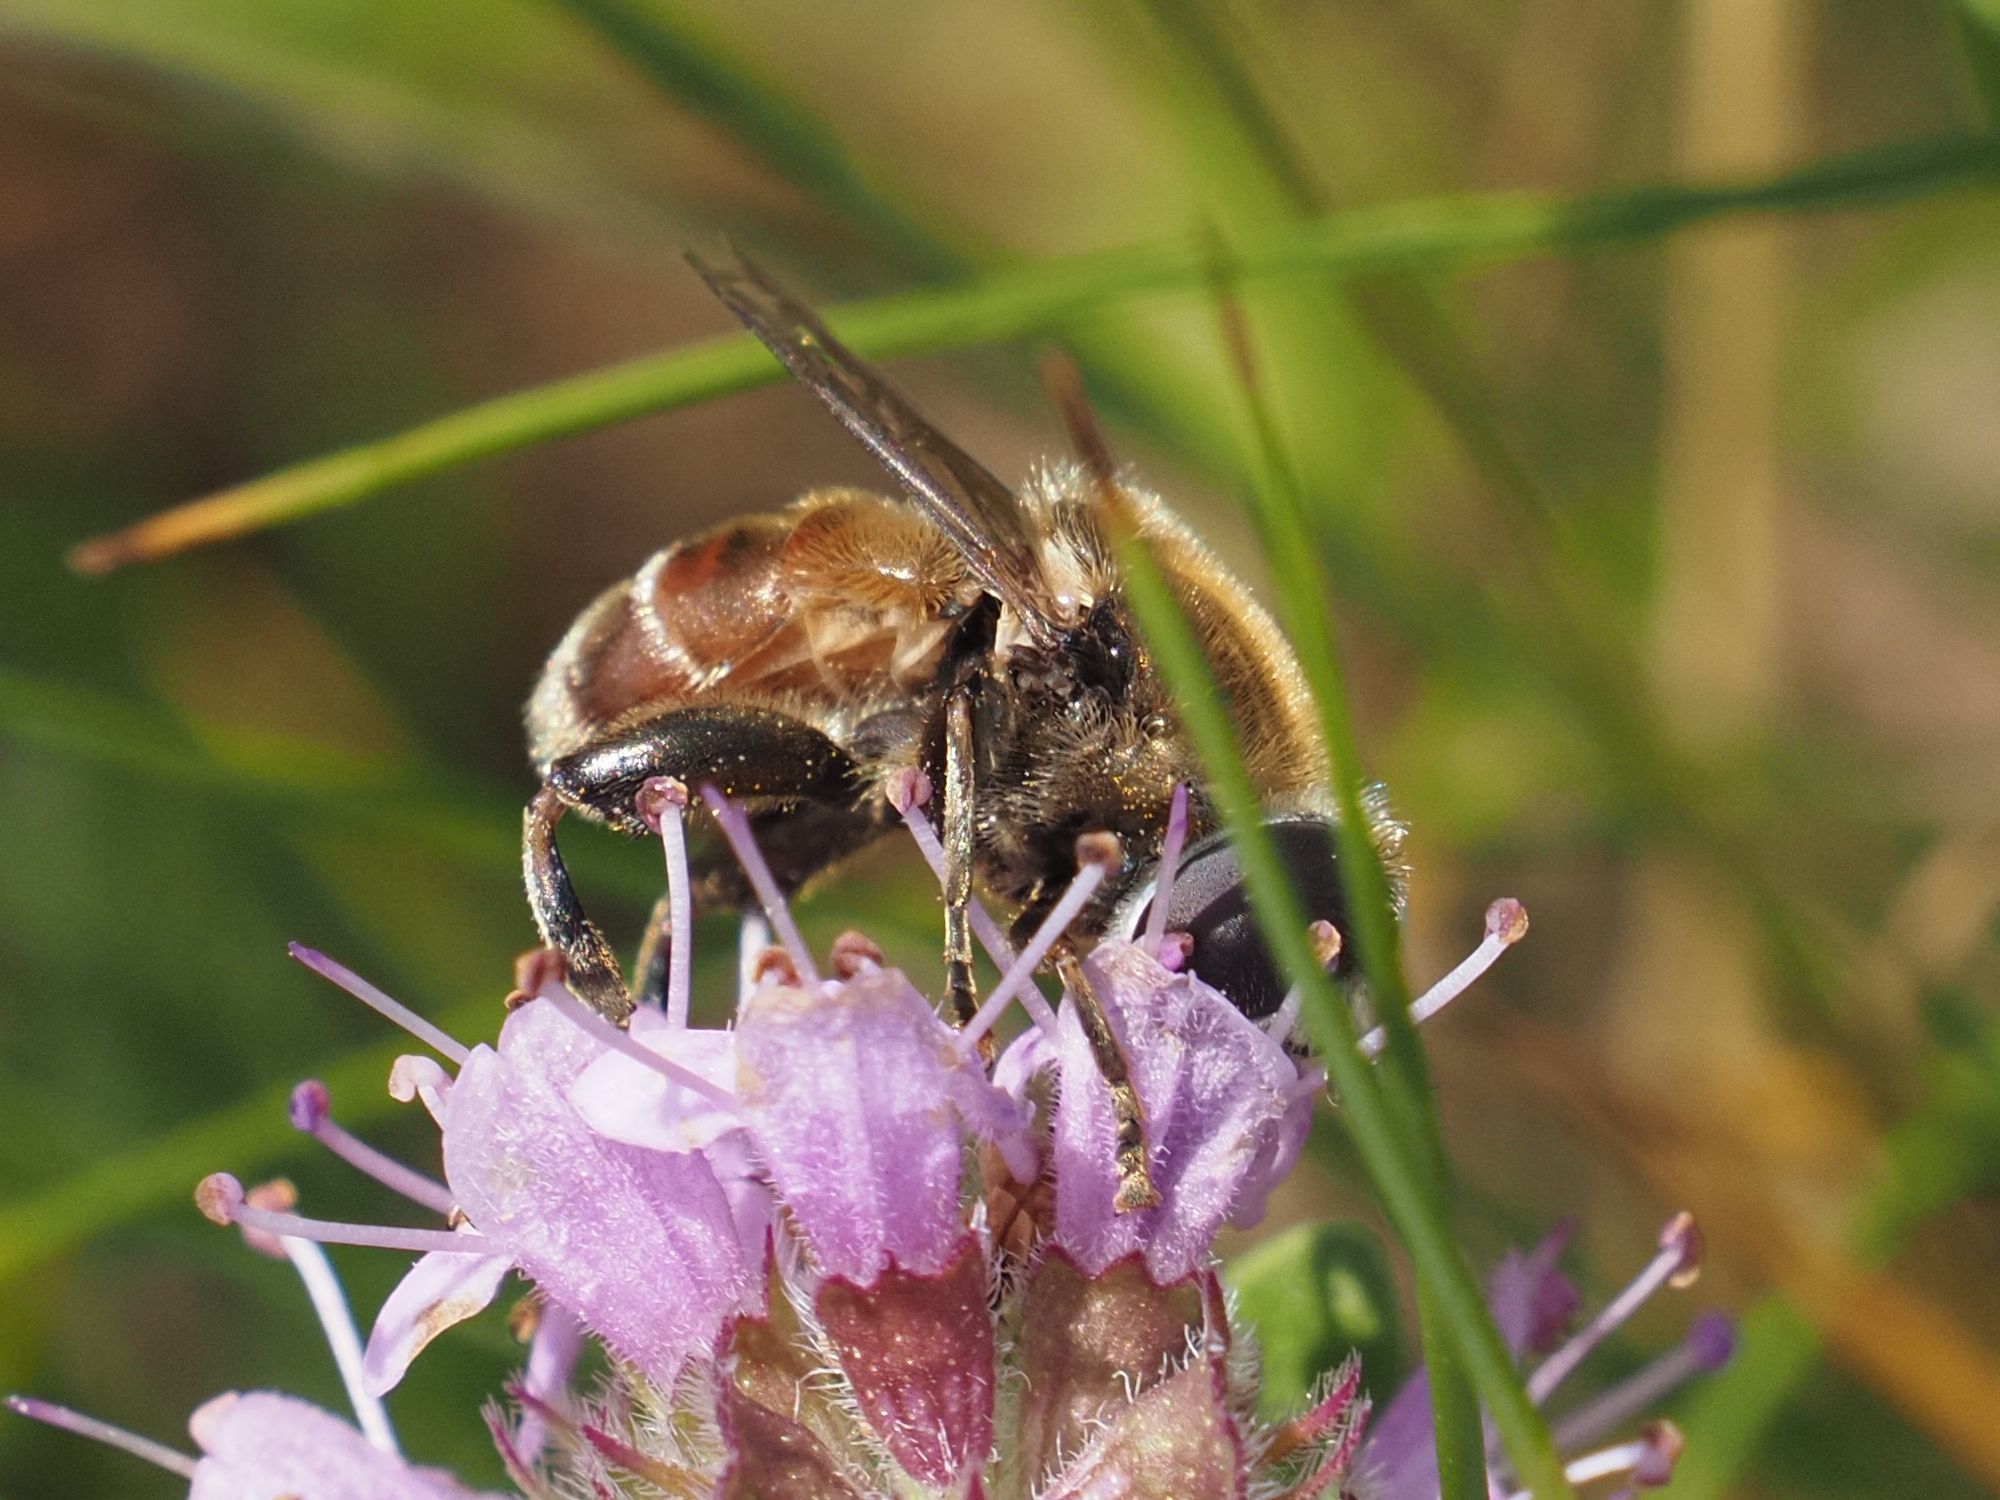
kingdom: Animalia
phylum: Arthropoda
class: Insecta
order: Diptera
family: Syrphidae
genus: Merodon
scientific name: Merodon albifrons
